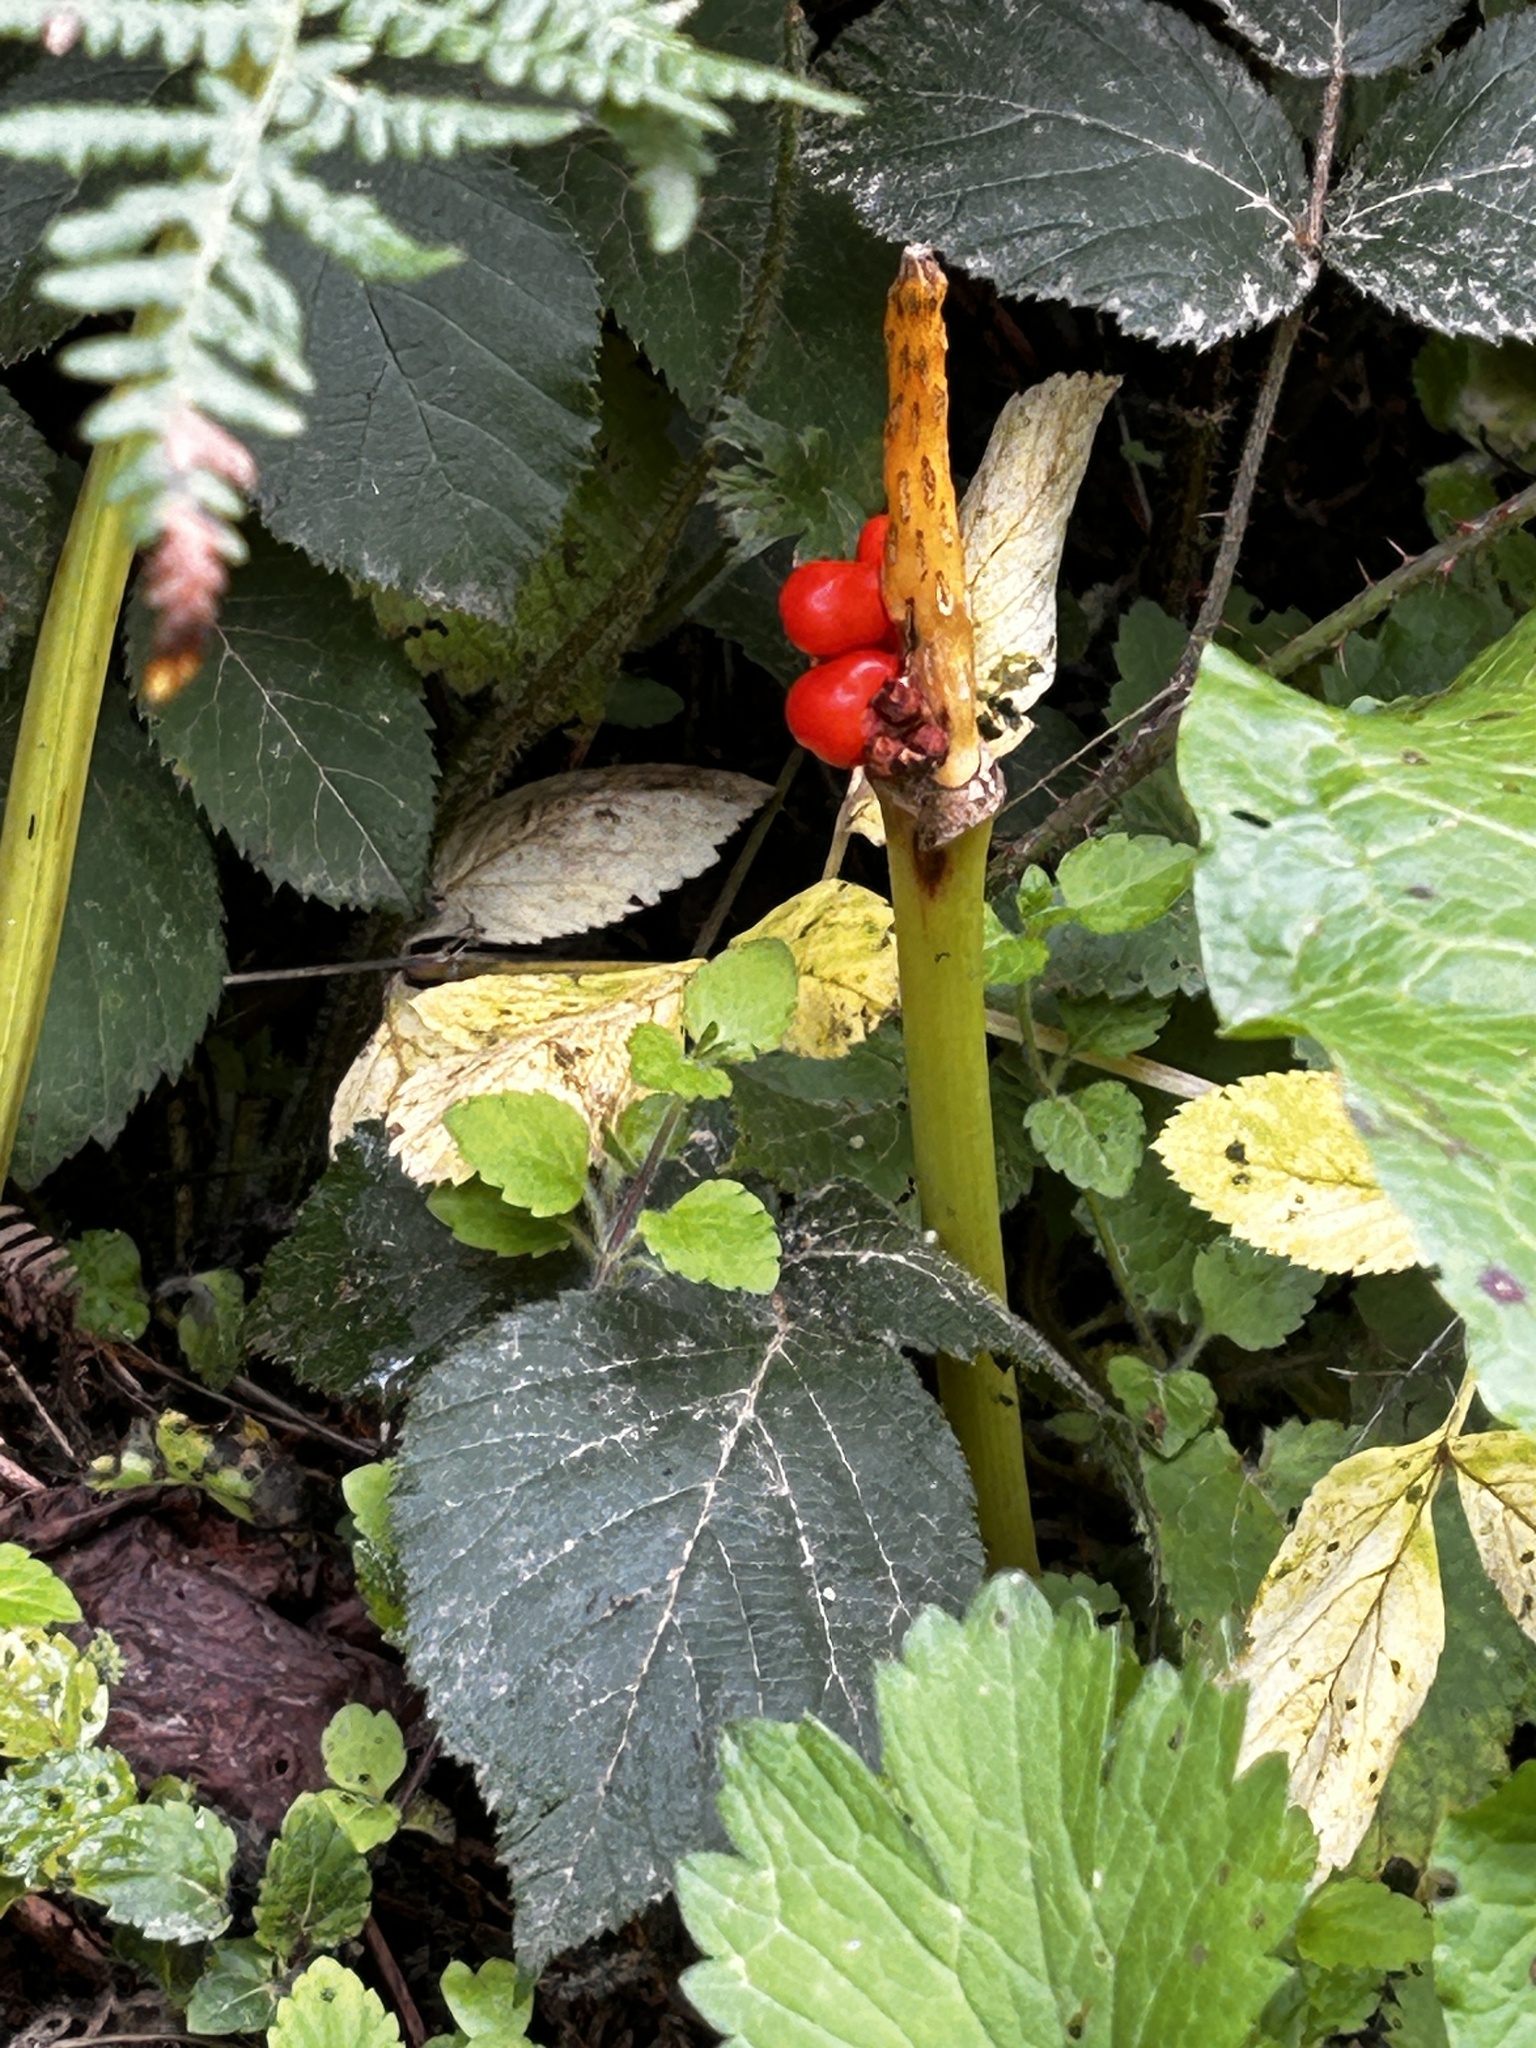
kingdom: Plantae
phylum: Tracheophyta
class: Liliopsida
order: Alismatales
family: Araceae
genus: Arum
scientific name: Arum maculatum
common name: Lords-and-ladies
